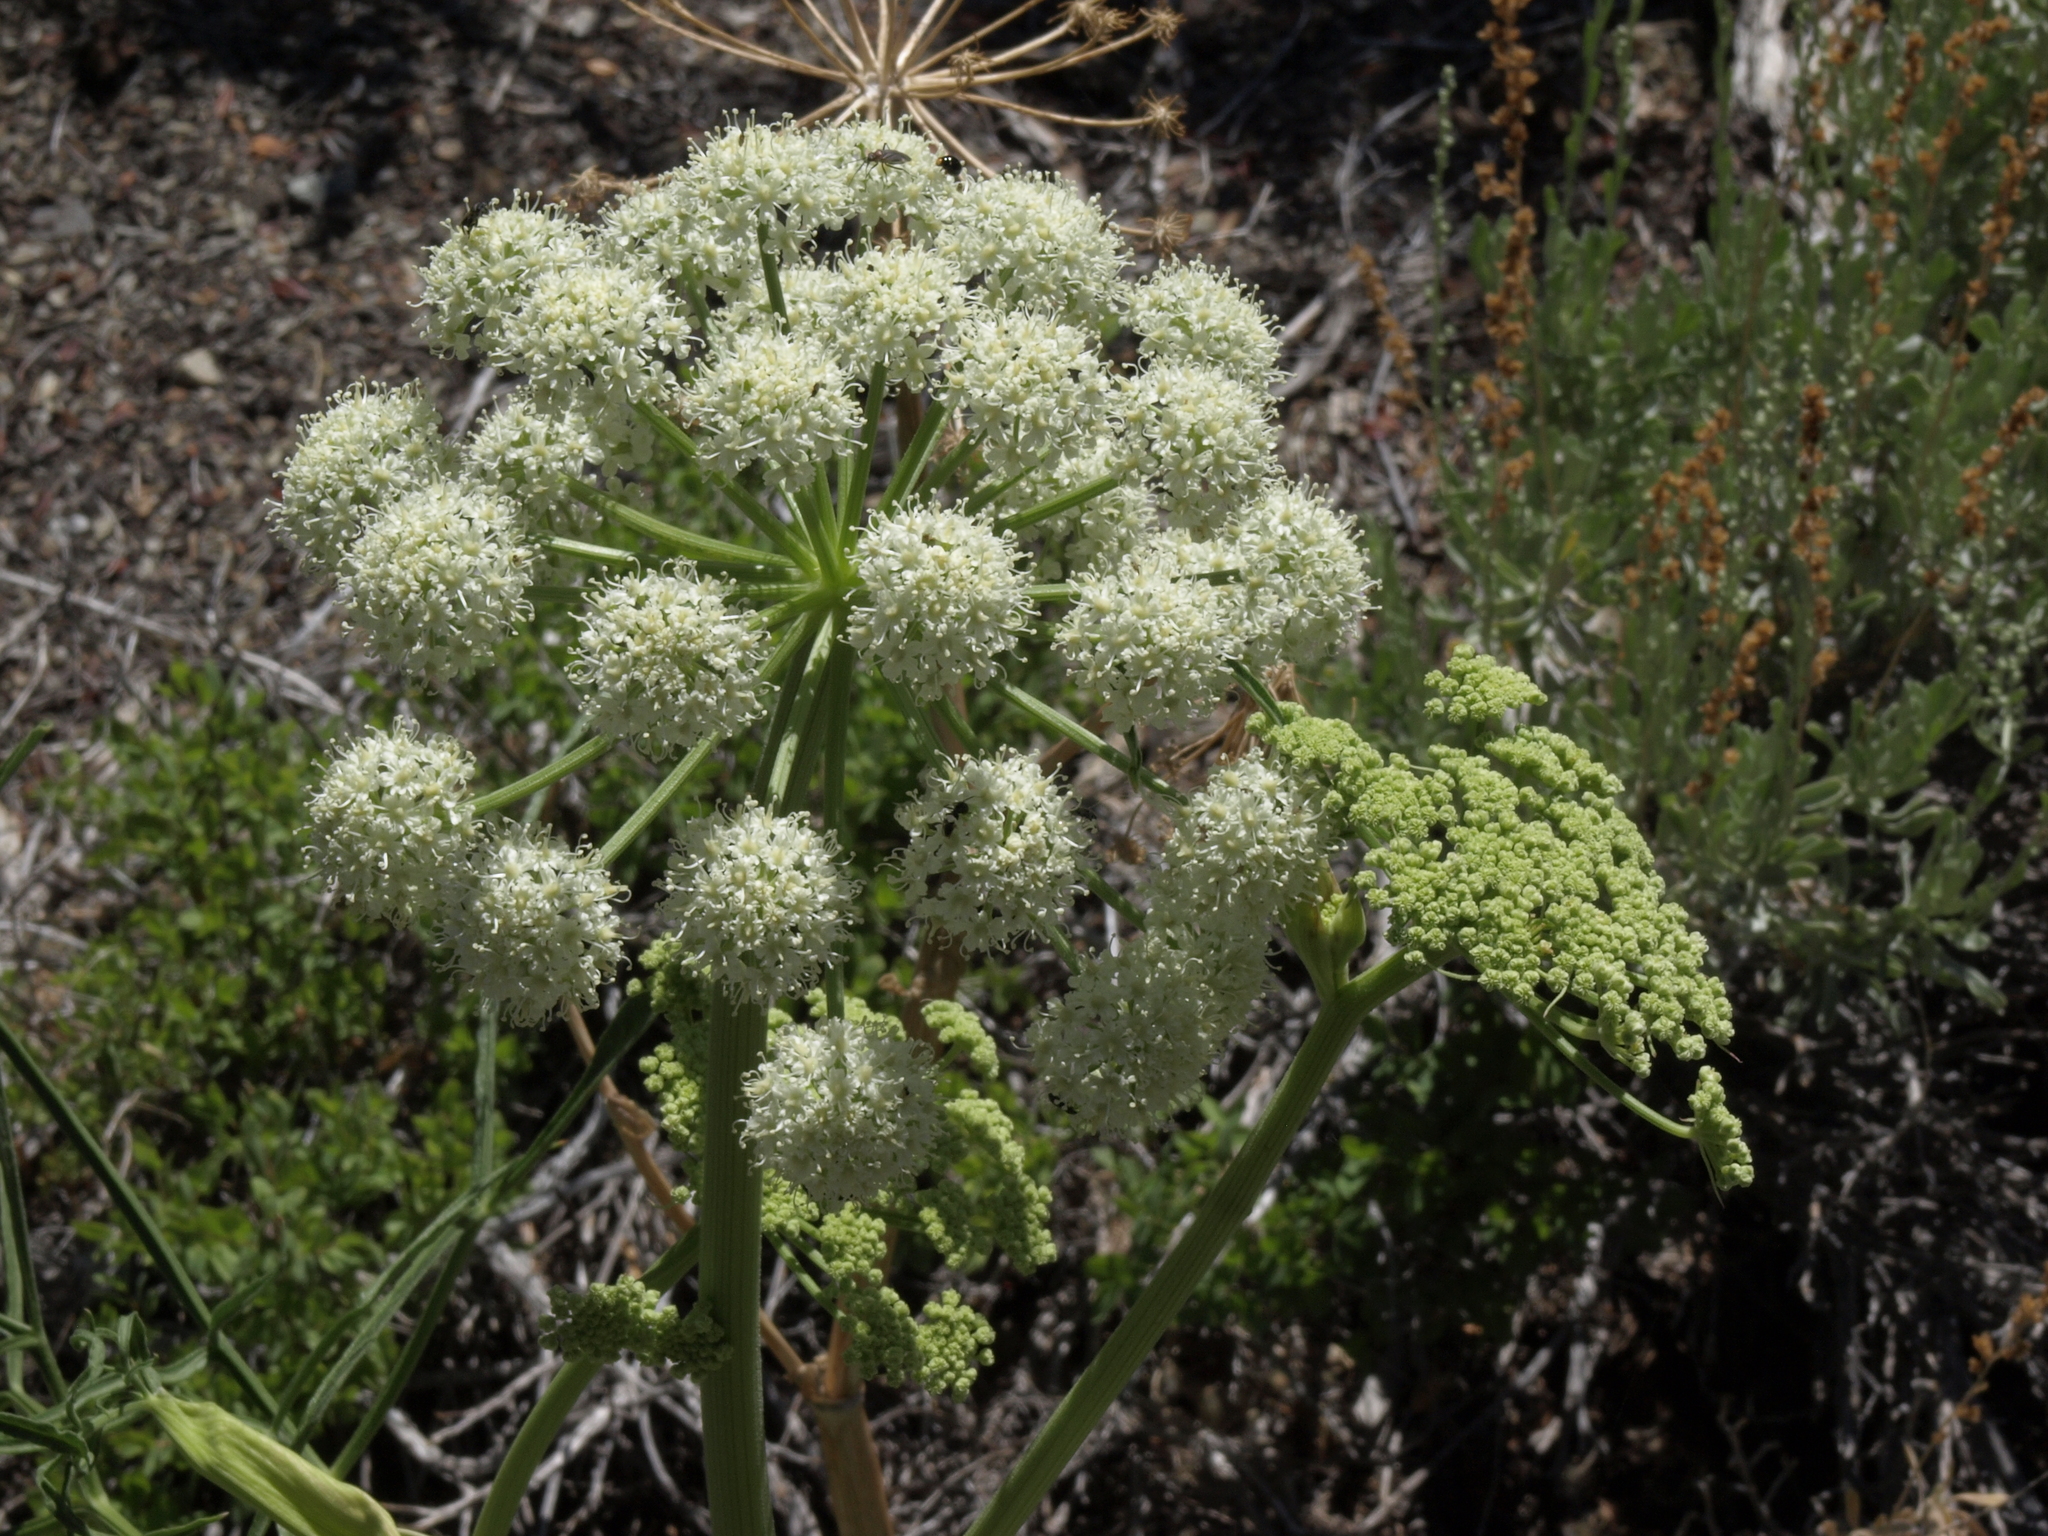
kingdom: Plantae
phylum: Tracheophyta
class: Magnoliopsida
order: Apiales
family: Apiaceae
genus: Angelica
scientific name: Angelica lineariloba
